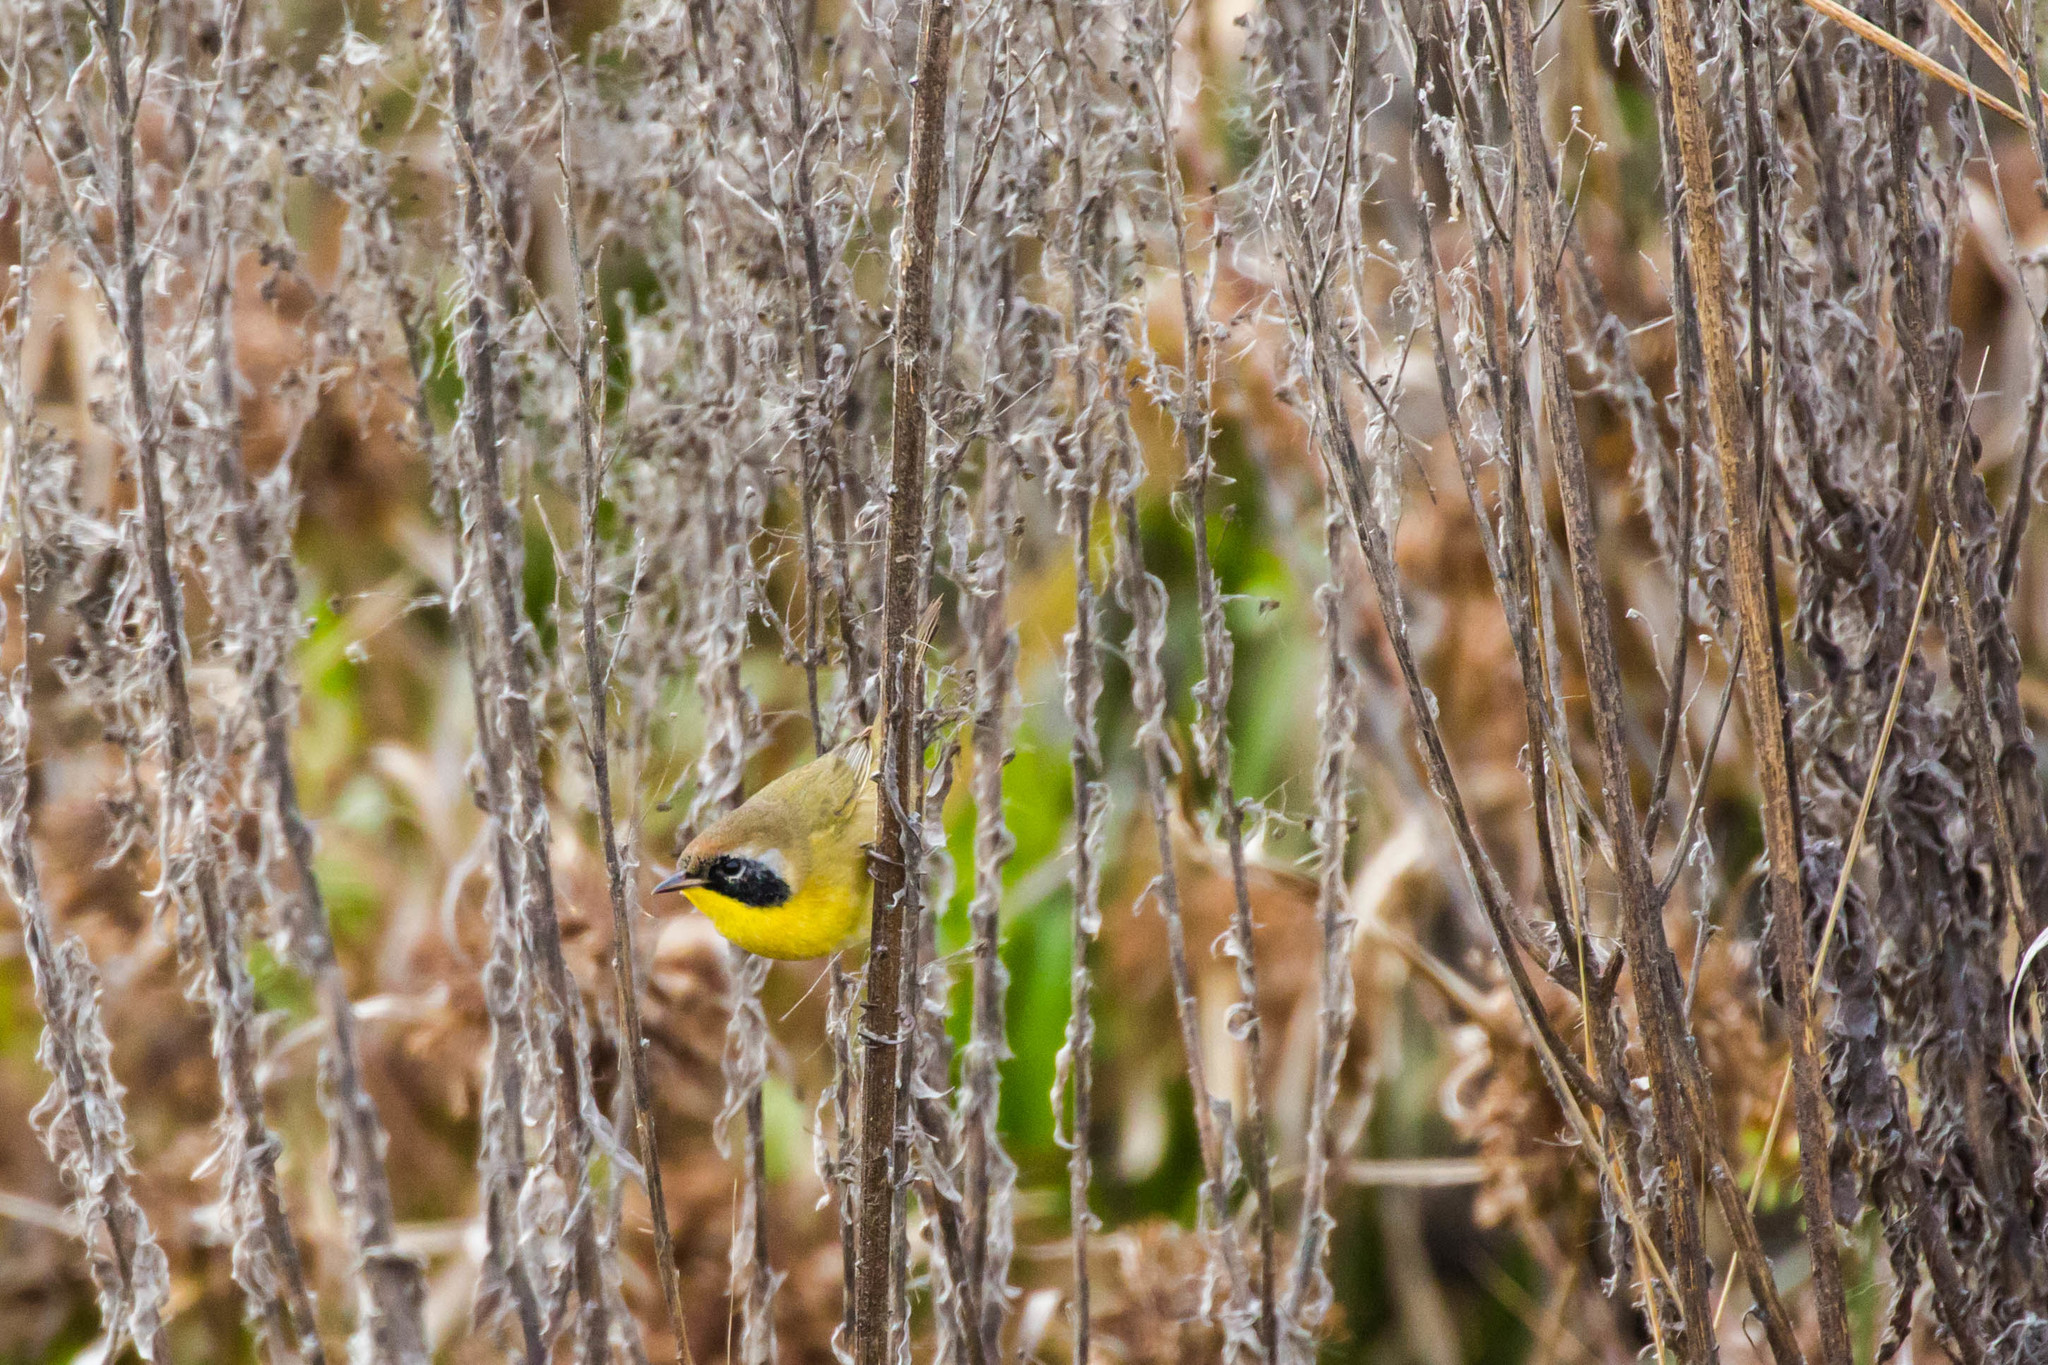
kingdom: Animalia
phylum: Chordata
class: Aves
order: Passeriformes
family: Parulidae
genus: Geothlypis
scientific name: Geothlypis trichas
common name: Common yellowthroat
